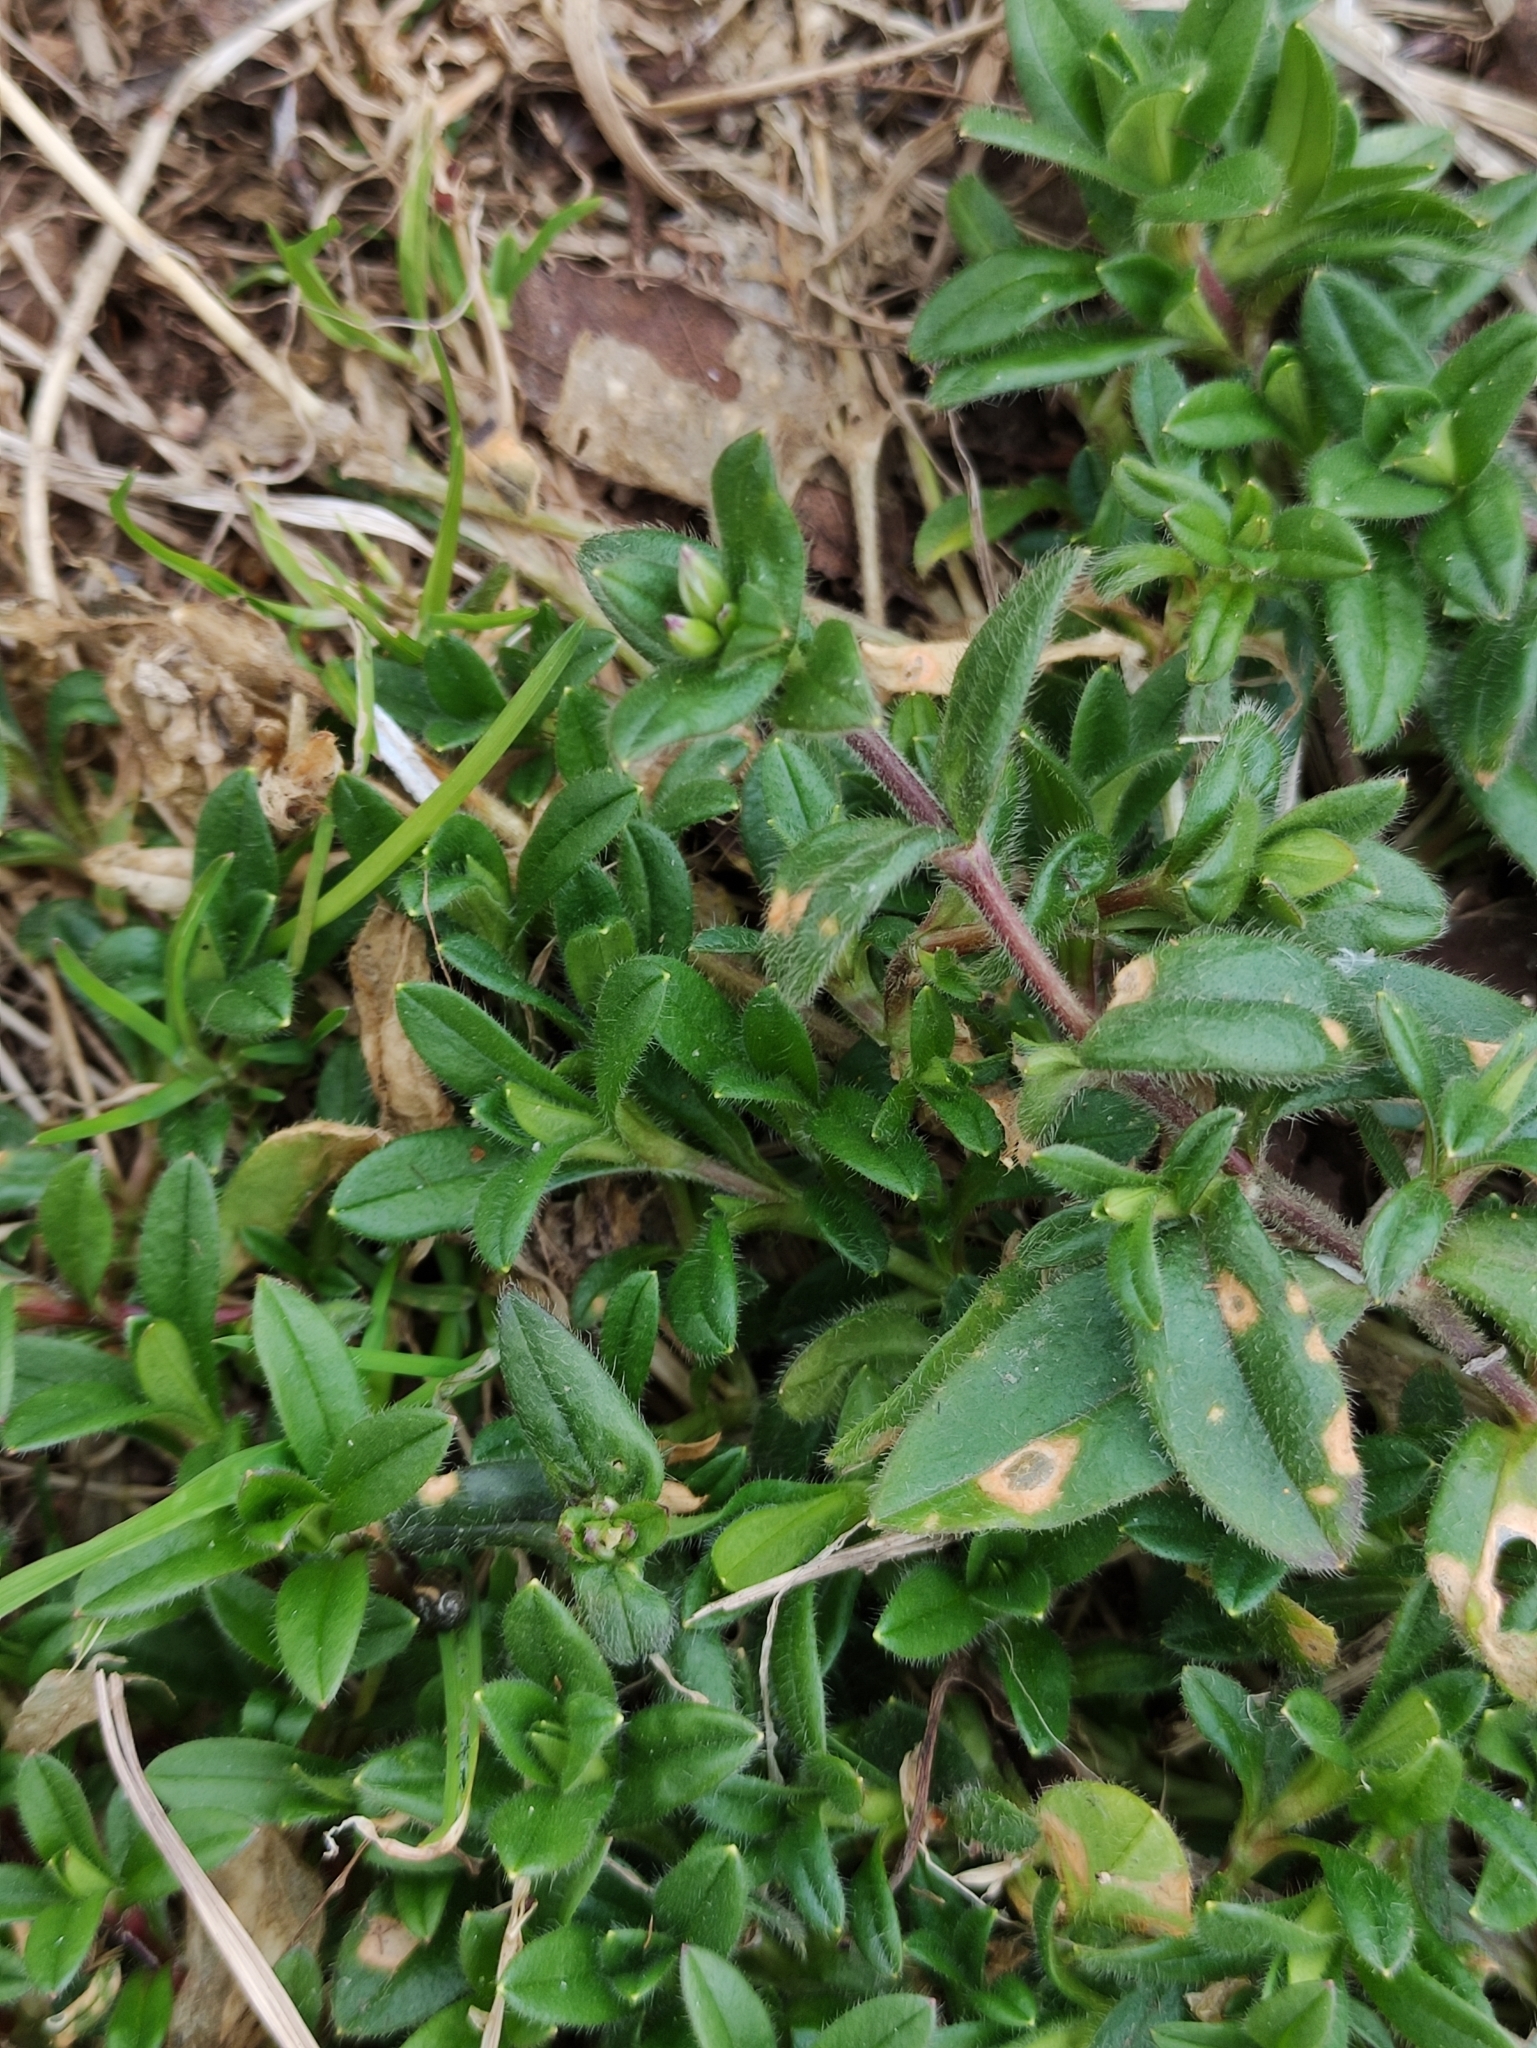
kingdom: Plantae
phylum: Tracheophyta
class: Magnoliopsida
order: Caryophyllales
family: Caryophyllaceae
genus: Cerastium
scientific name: Cerastium holosteoides
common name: Big chickweed
